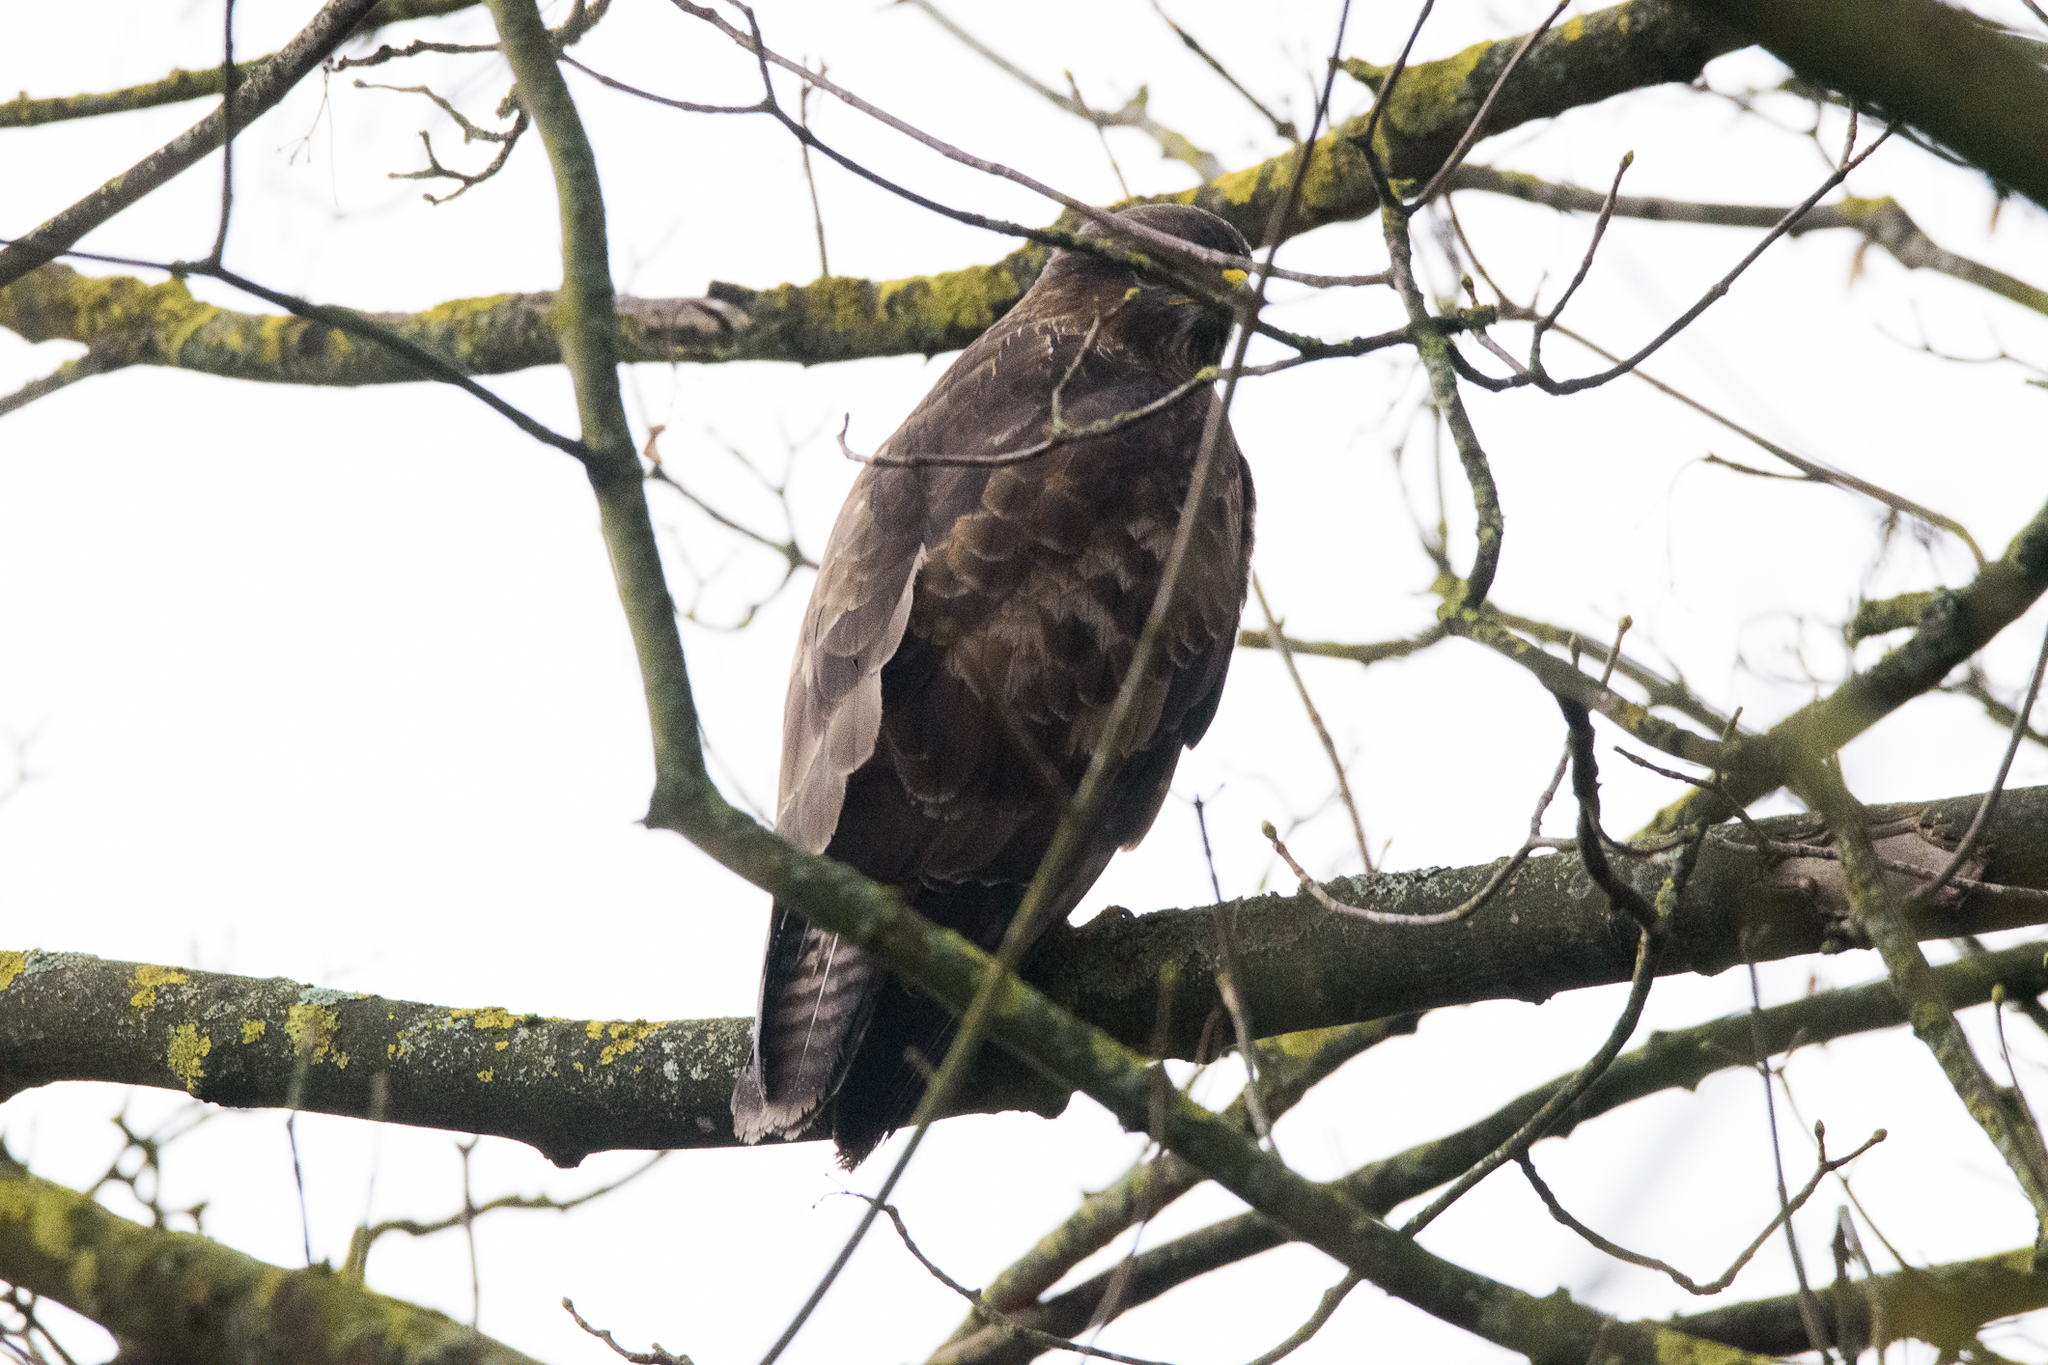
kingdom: Animalia
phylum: Chordata
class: Aves
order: Accipitriformes
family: Accipitridae
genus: Buteo
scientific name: Buteo buteo
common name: Common buzzard
